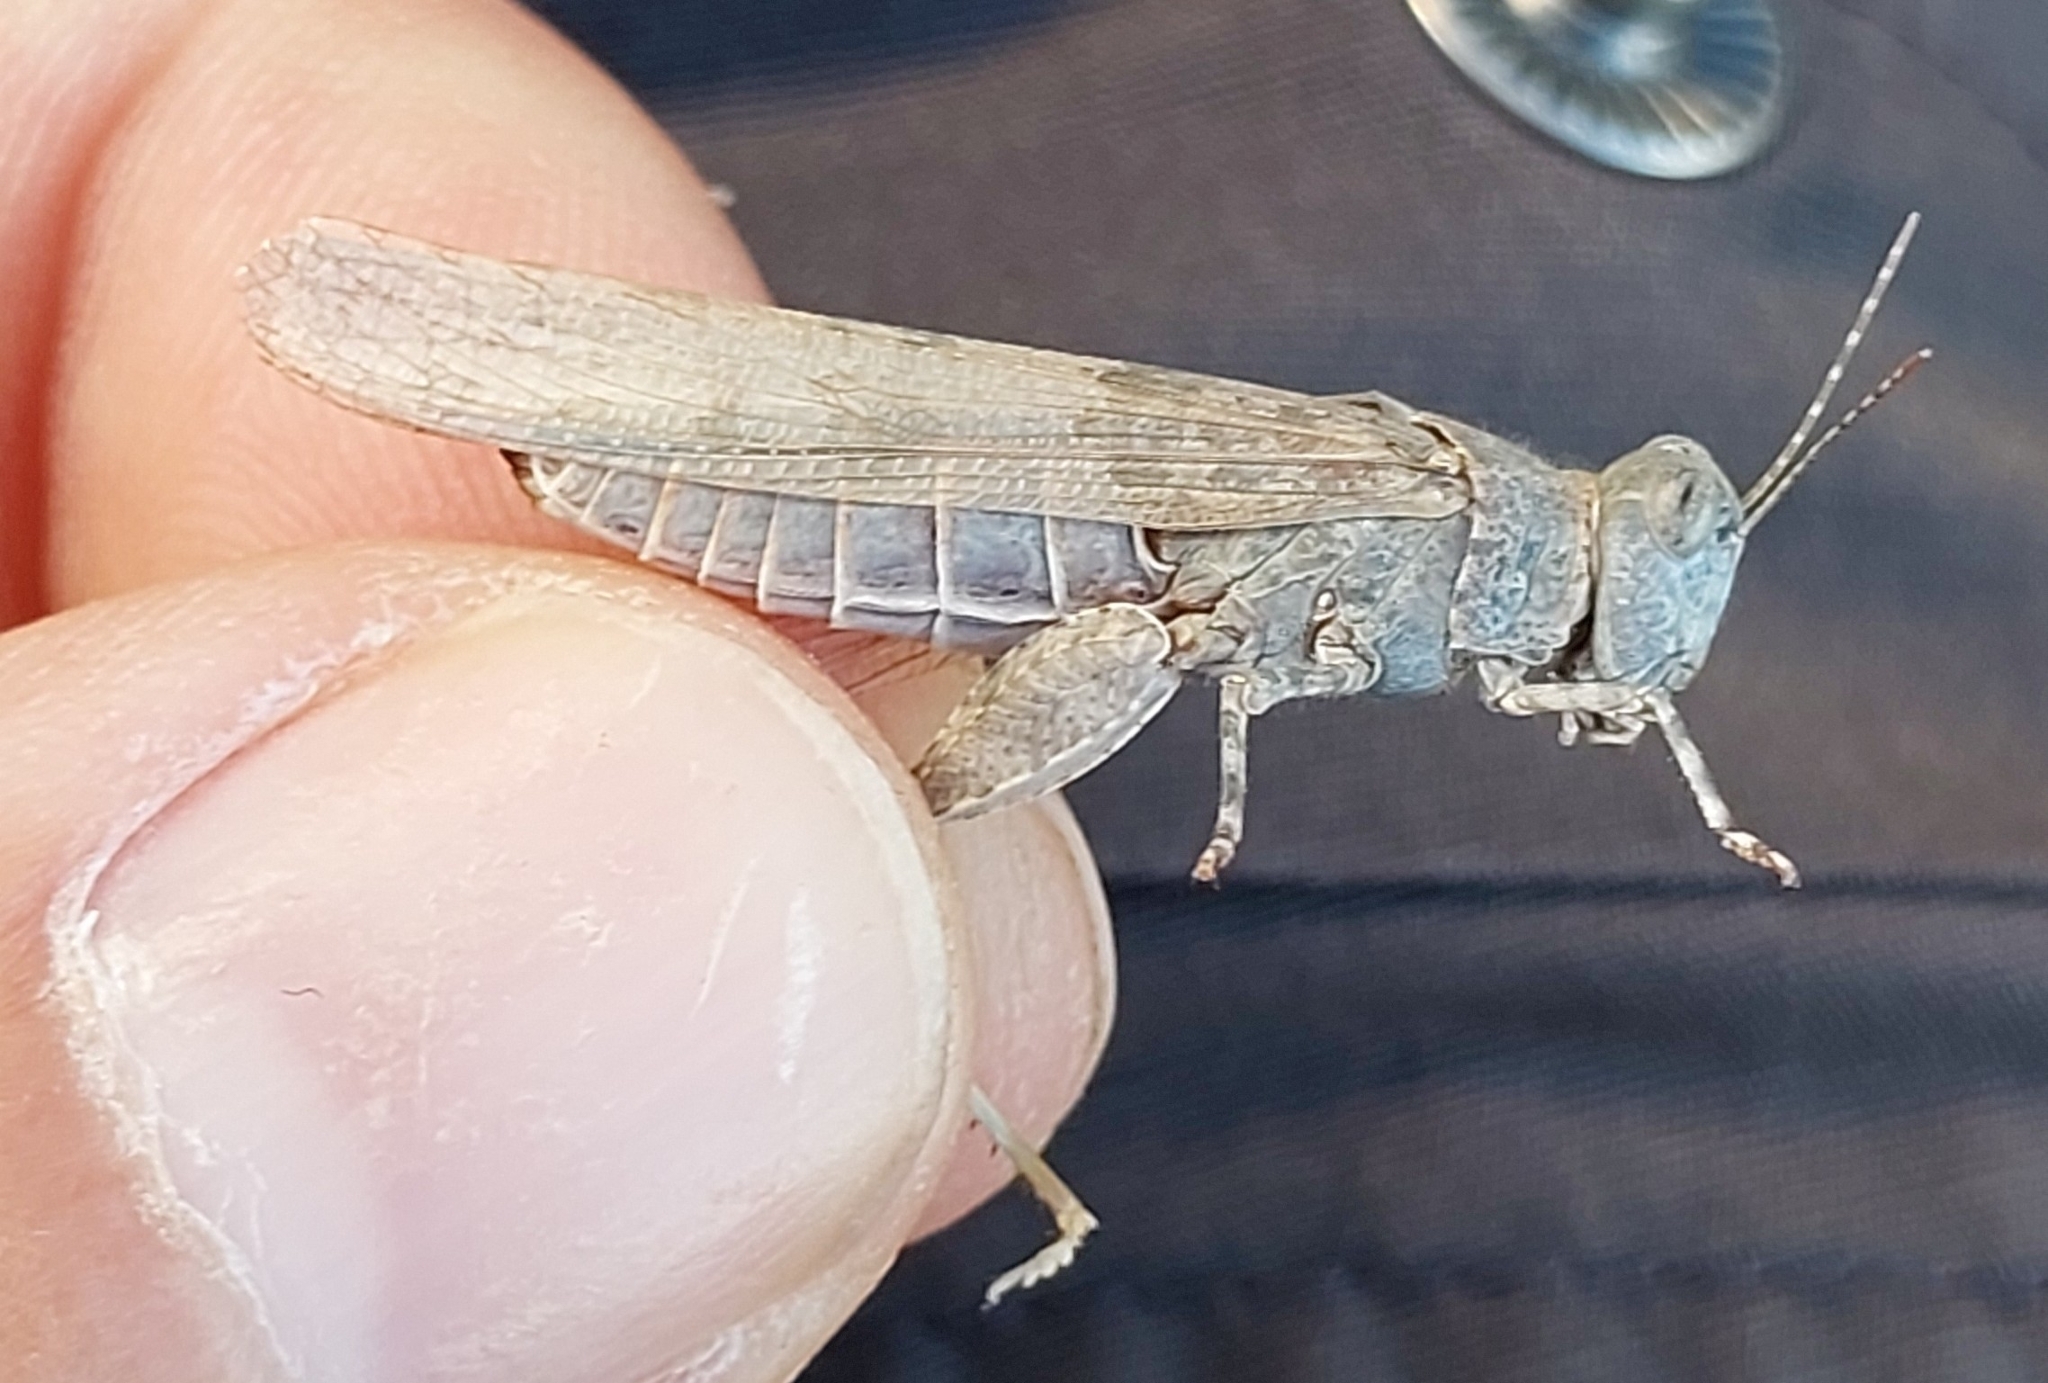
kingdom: Animalia
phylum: Arthropoda
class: Insecta
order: Orthoptera
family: Acrididae
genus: Sphingonotus
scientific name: Sphingonotus
